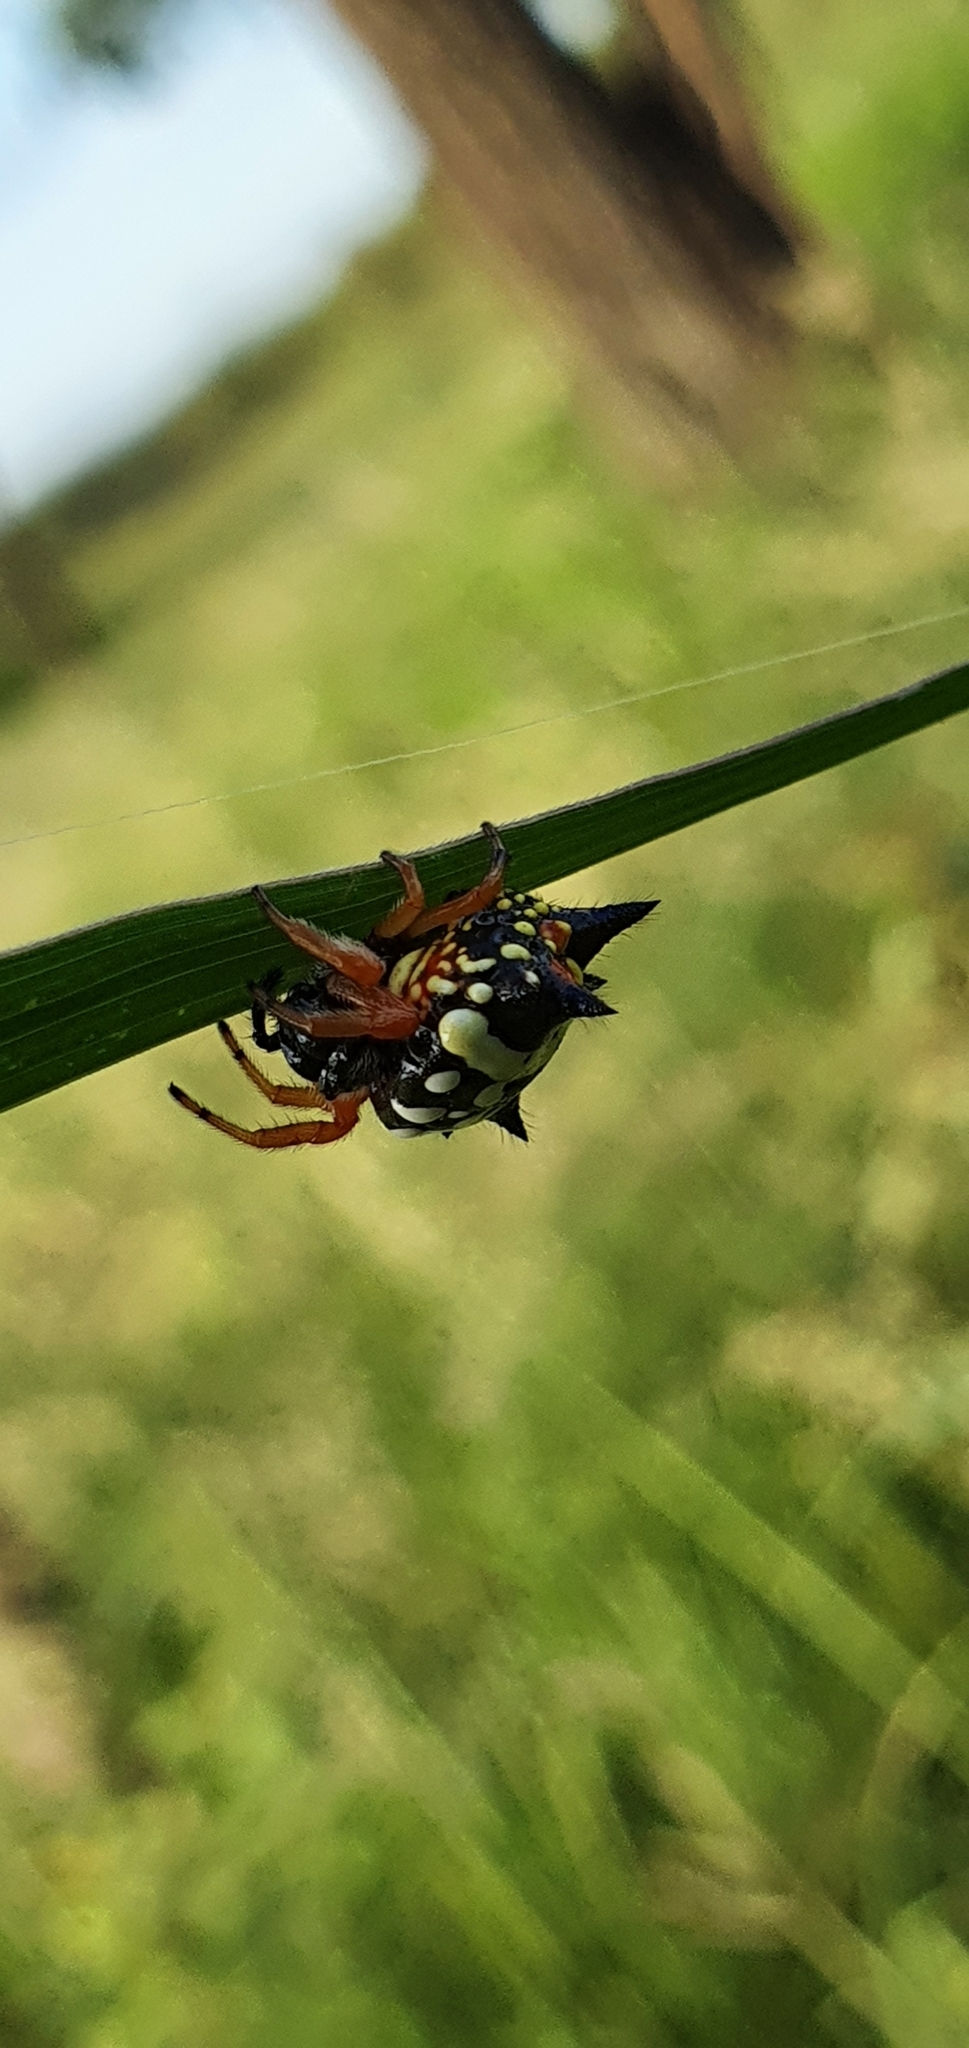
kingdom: Animalia
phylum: Arthropoda
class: Arachnida
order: Araneae
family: Araneidae
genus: Austracantha
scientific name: Austracantha minax
